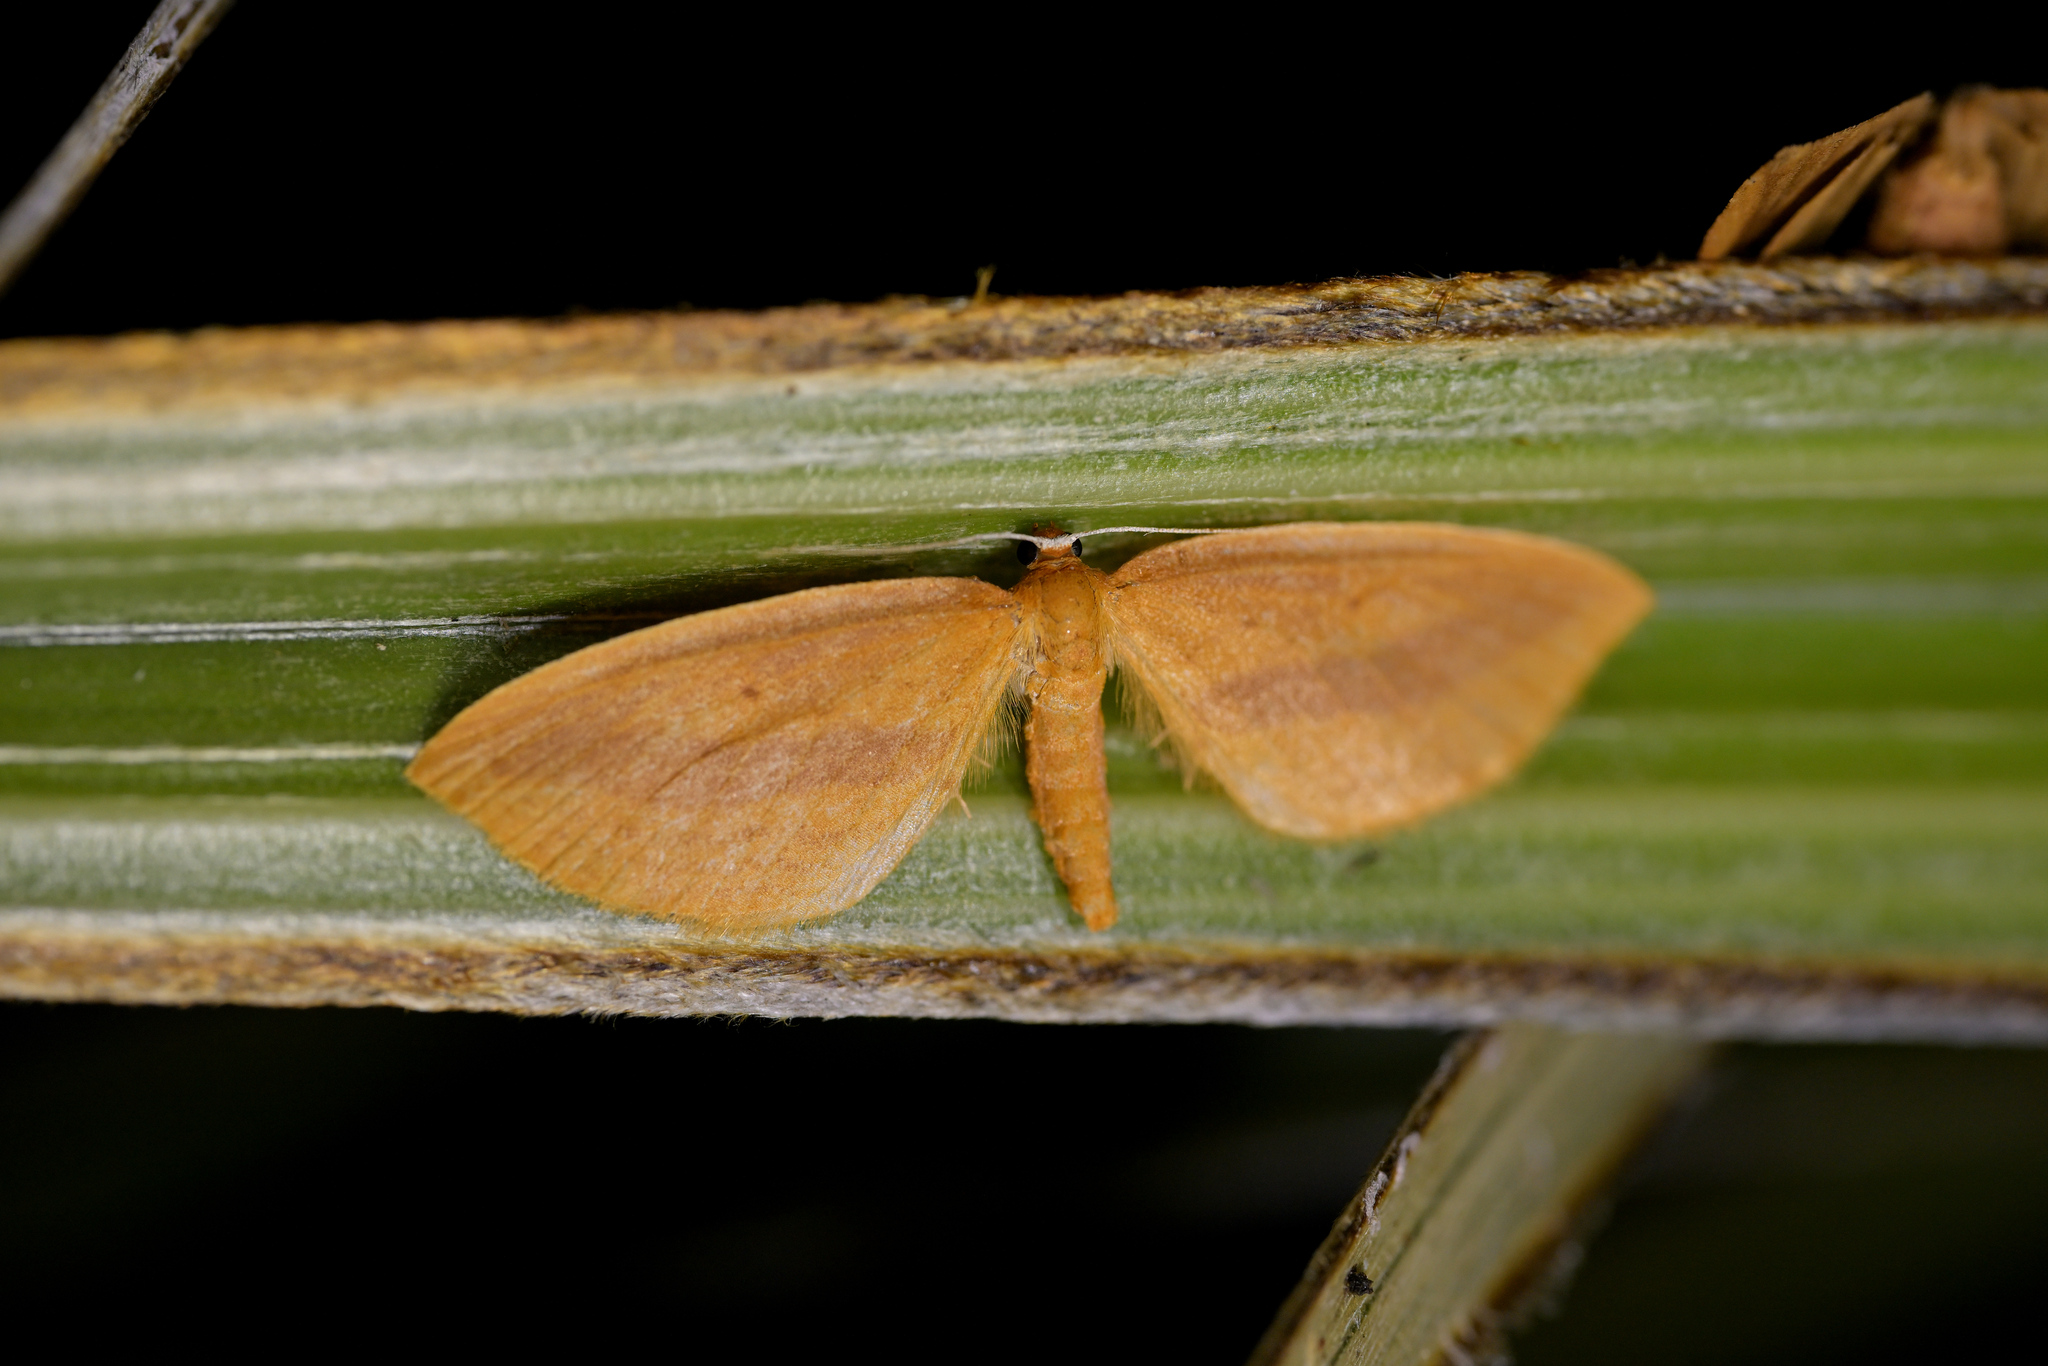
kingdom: Animalia
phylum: Arthropoda
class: Insecta
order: Lepidoptera
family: Geometridae
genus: Epiphryne
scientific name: Epiphryne charidema
